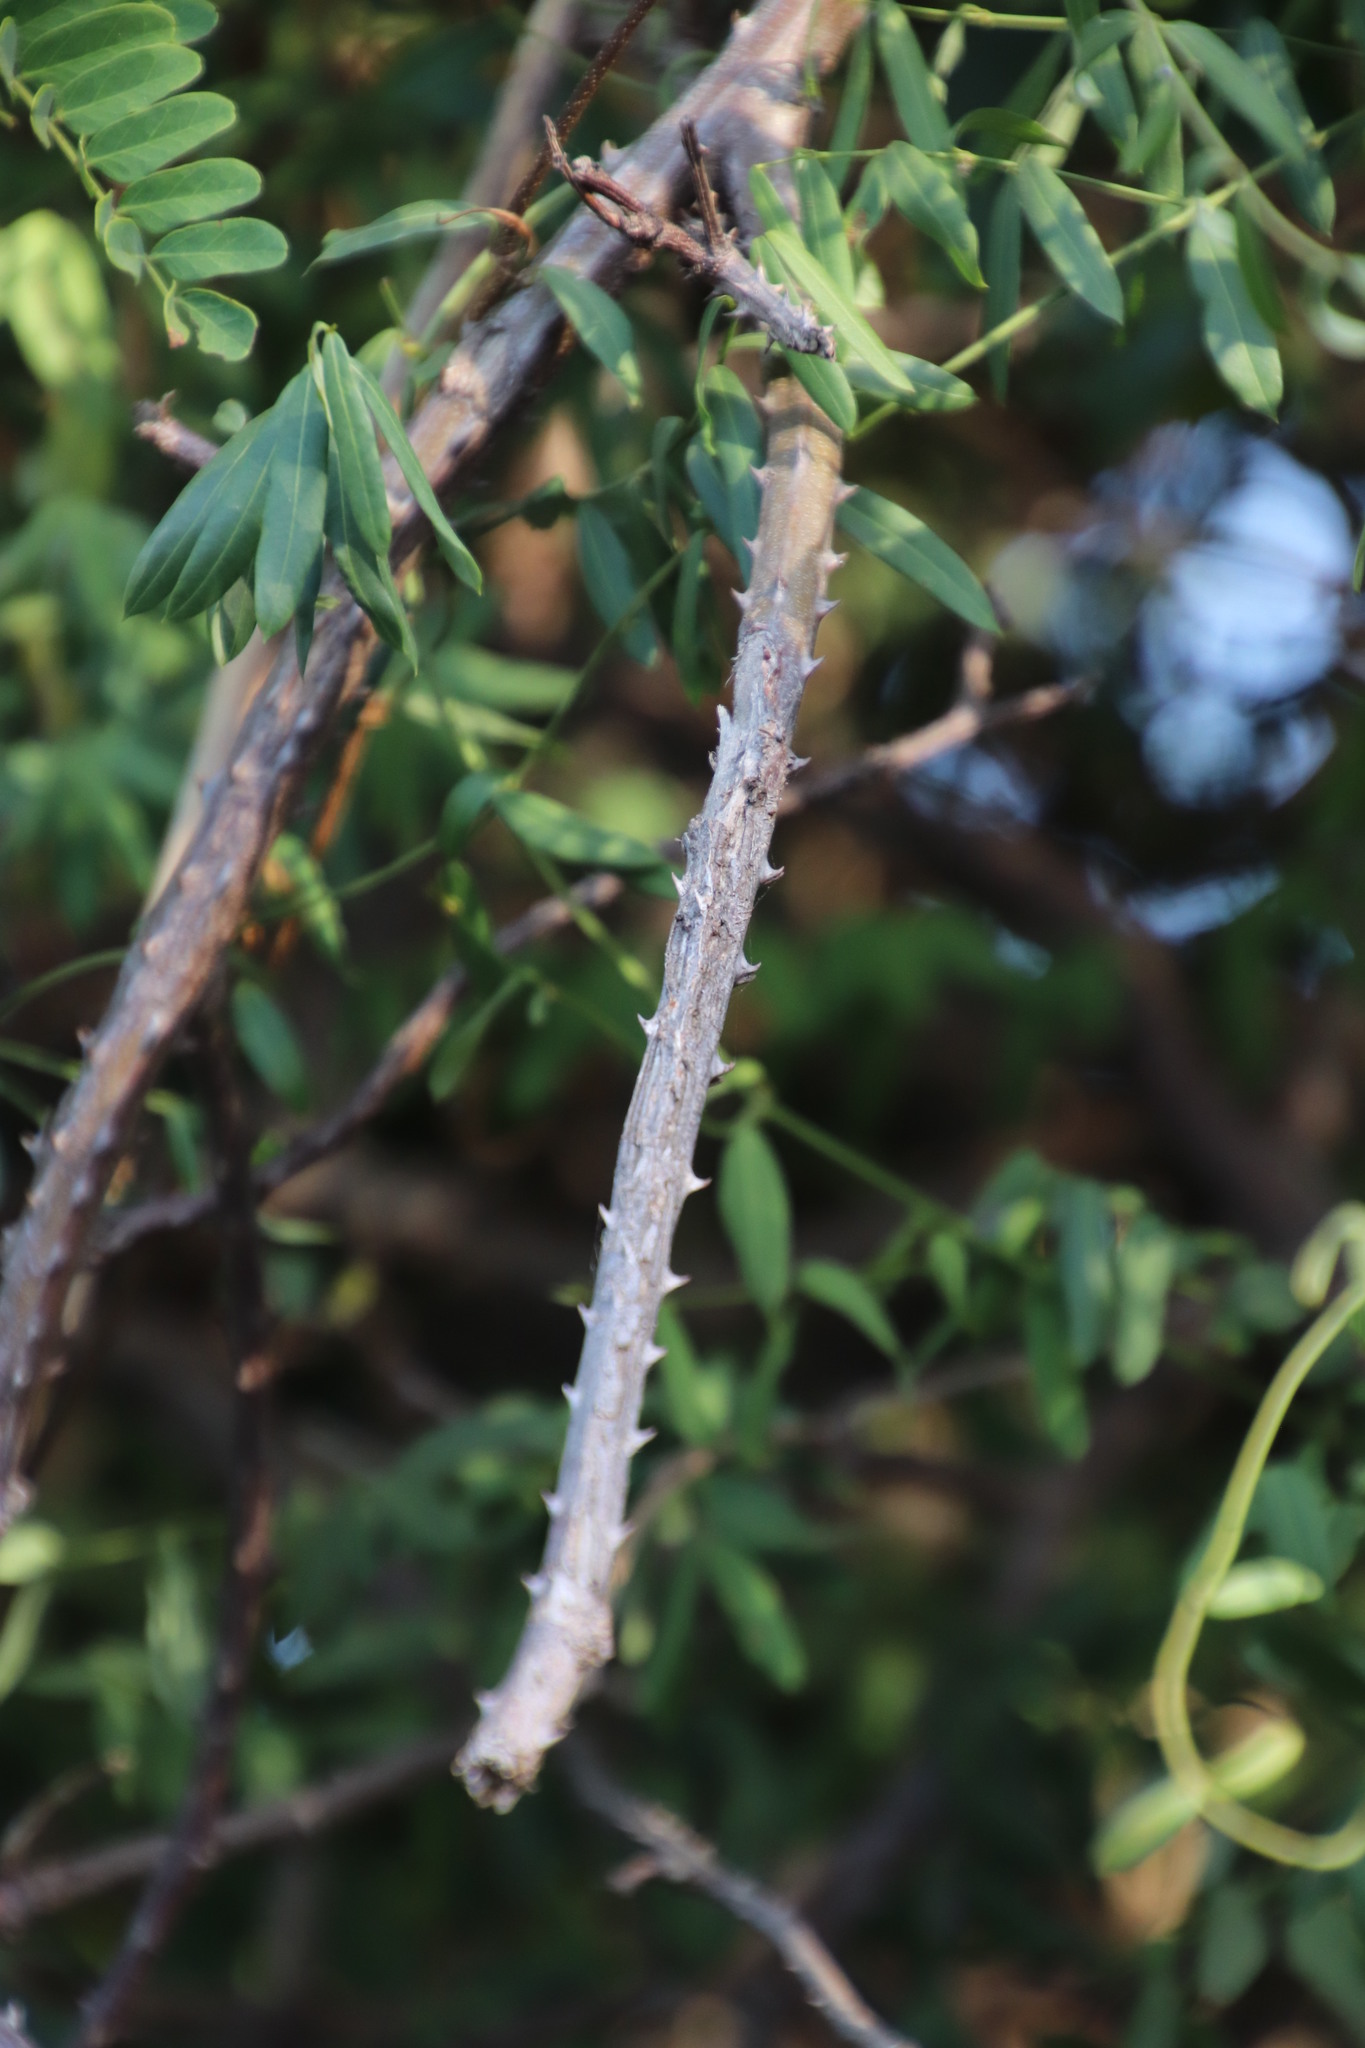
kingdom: Plantae
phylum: Tracheophyta
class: Magnoliopsida
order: Fabales
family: Fabaceae
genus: Biancaea
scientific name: Biancaea decapetala
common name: Cat's claw
